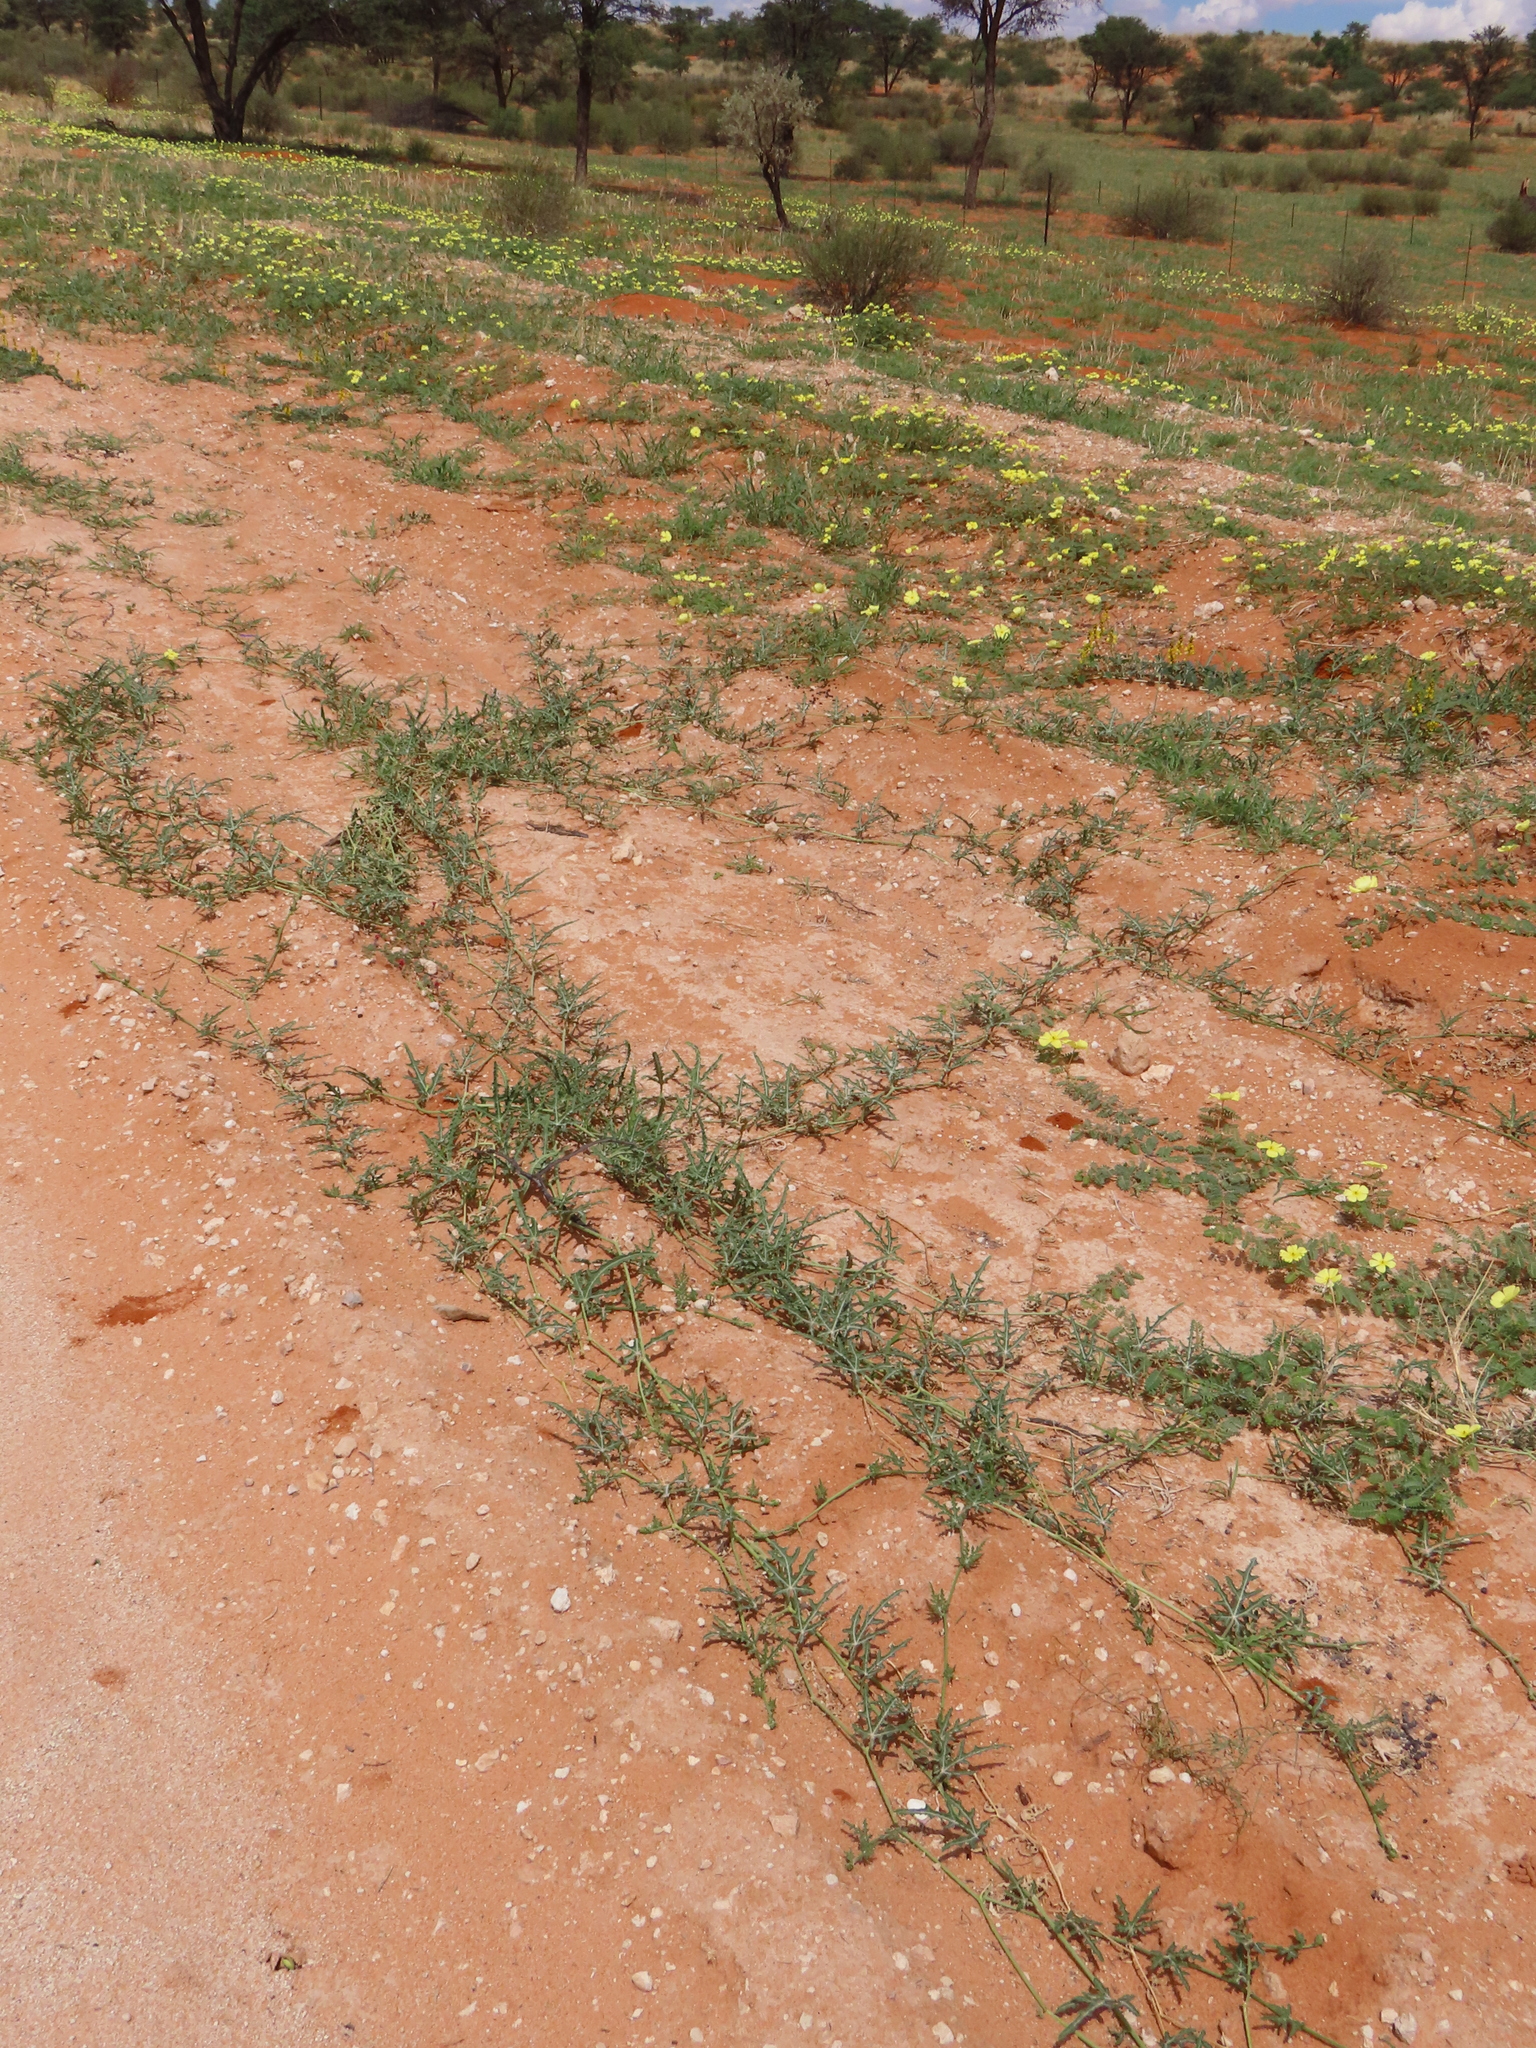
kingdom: Plantae
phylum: Tracheophyta
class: Magnoliopsida
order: Cucurbitales
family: Cucurbitaceae
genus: Citrullus
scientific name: Citrullus naudinianus
